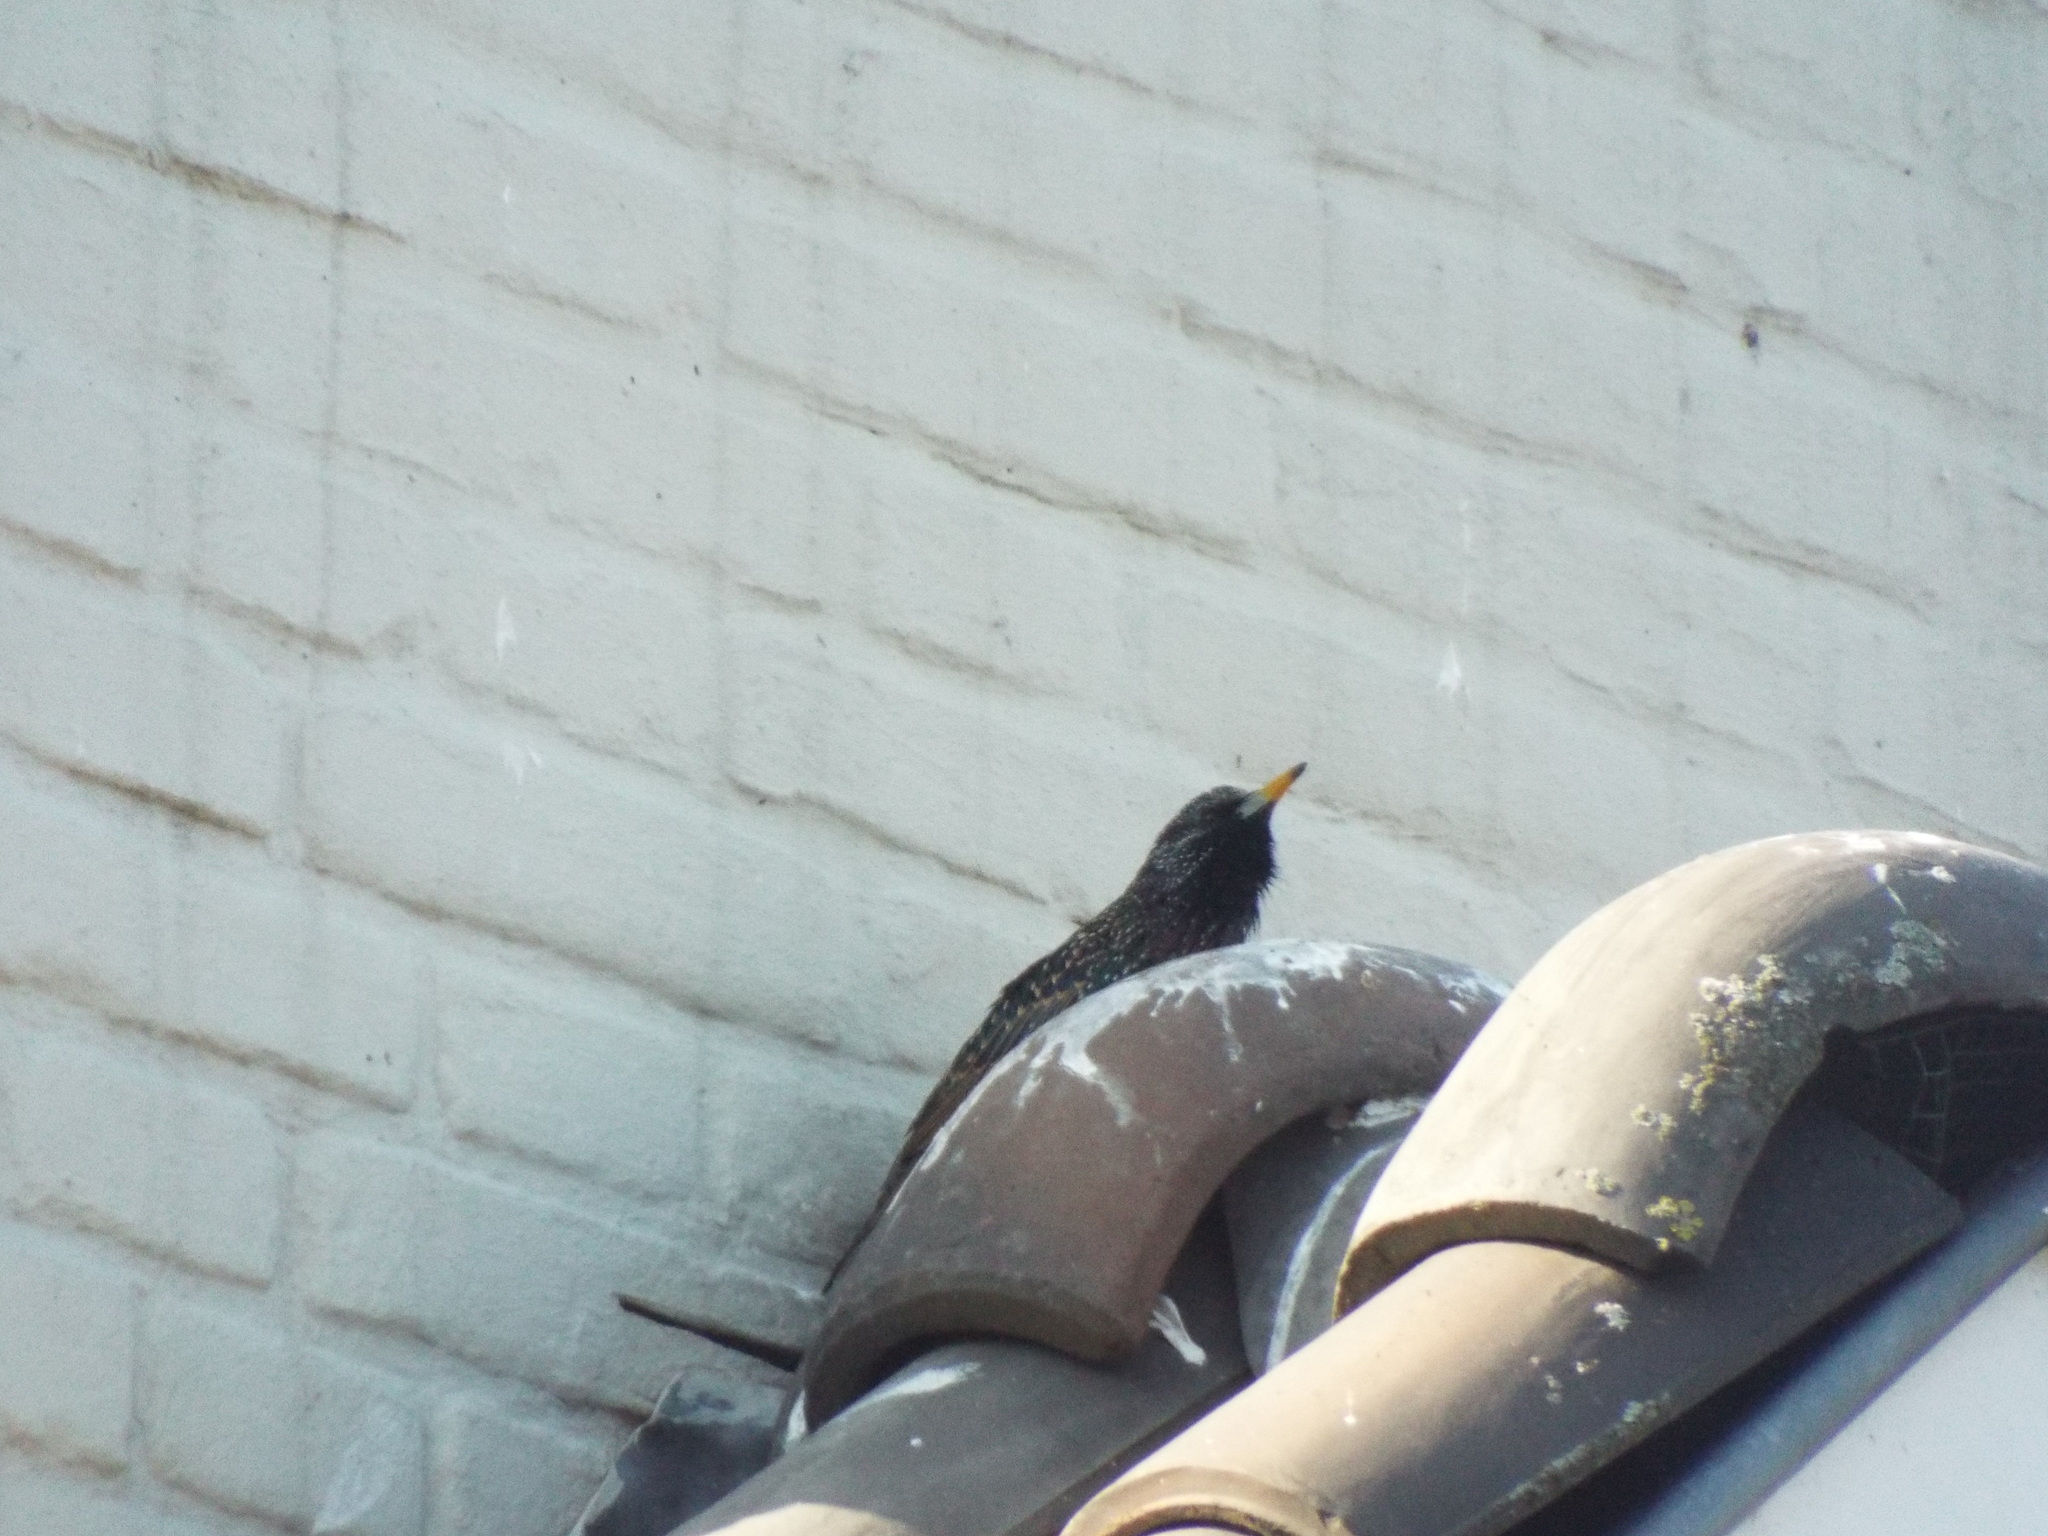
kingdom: Animalia
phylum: Chordata
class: Aves
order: Passeriformes
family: Sturnidae
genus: Sturnus
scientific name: Sturnus vulgaris
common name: Common starling
